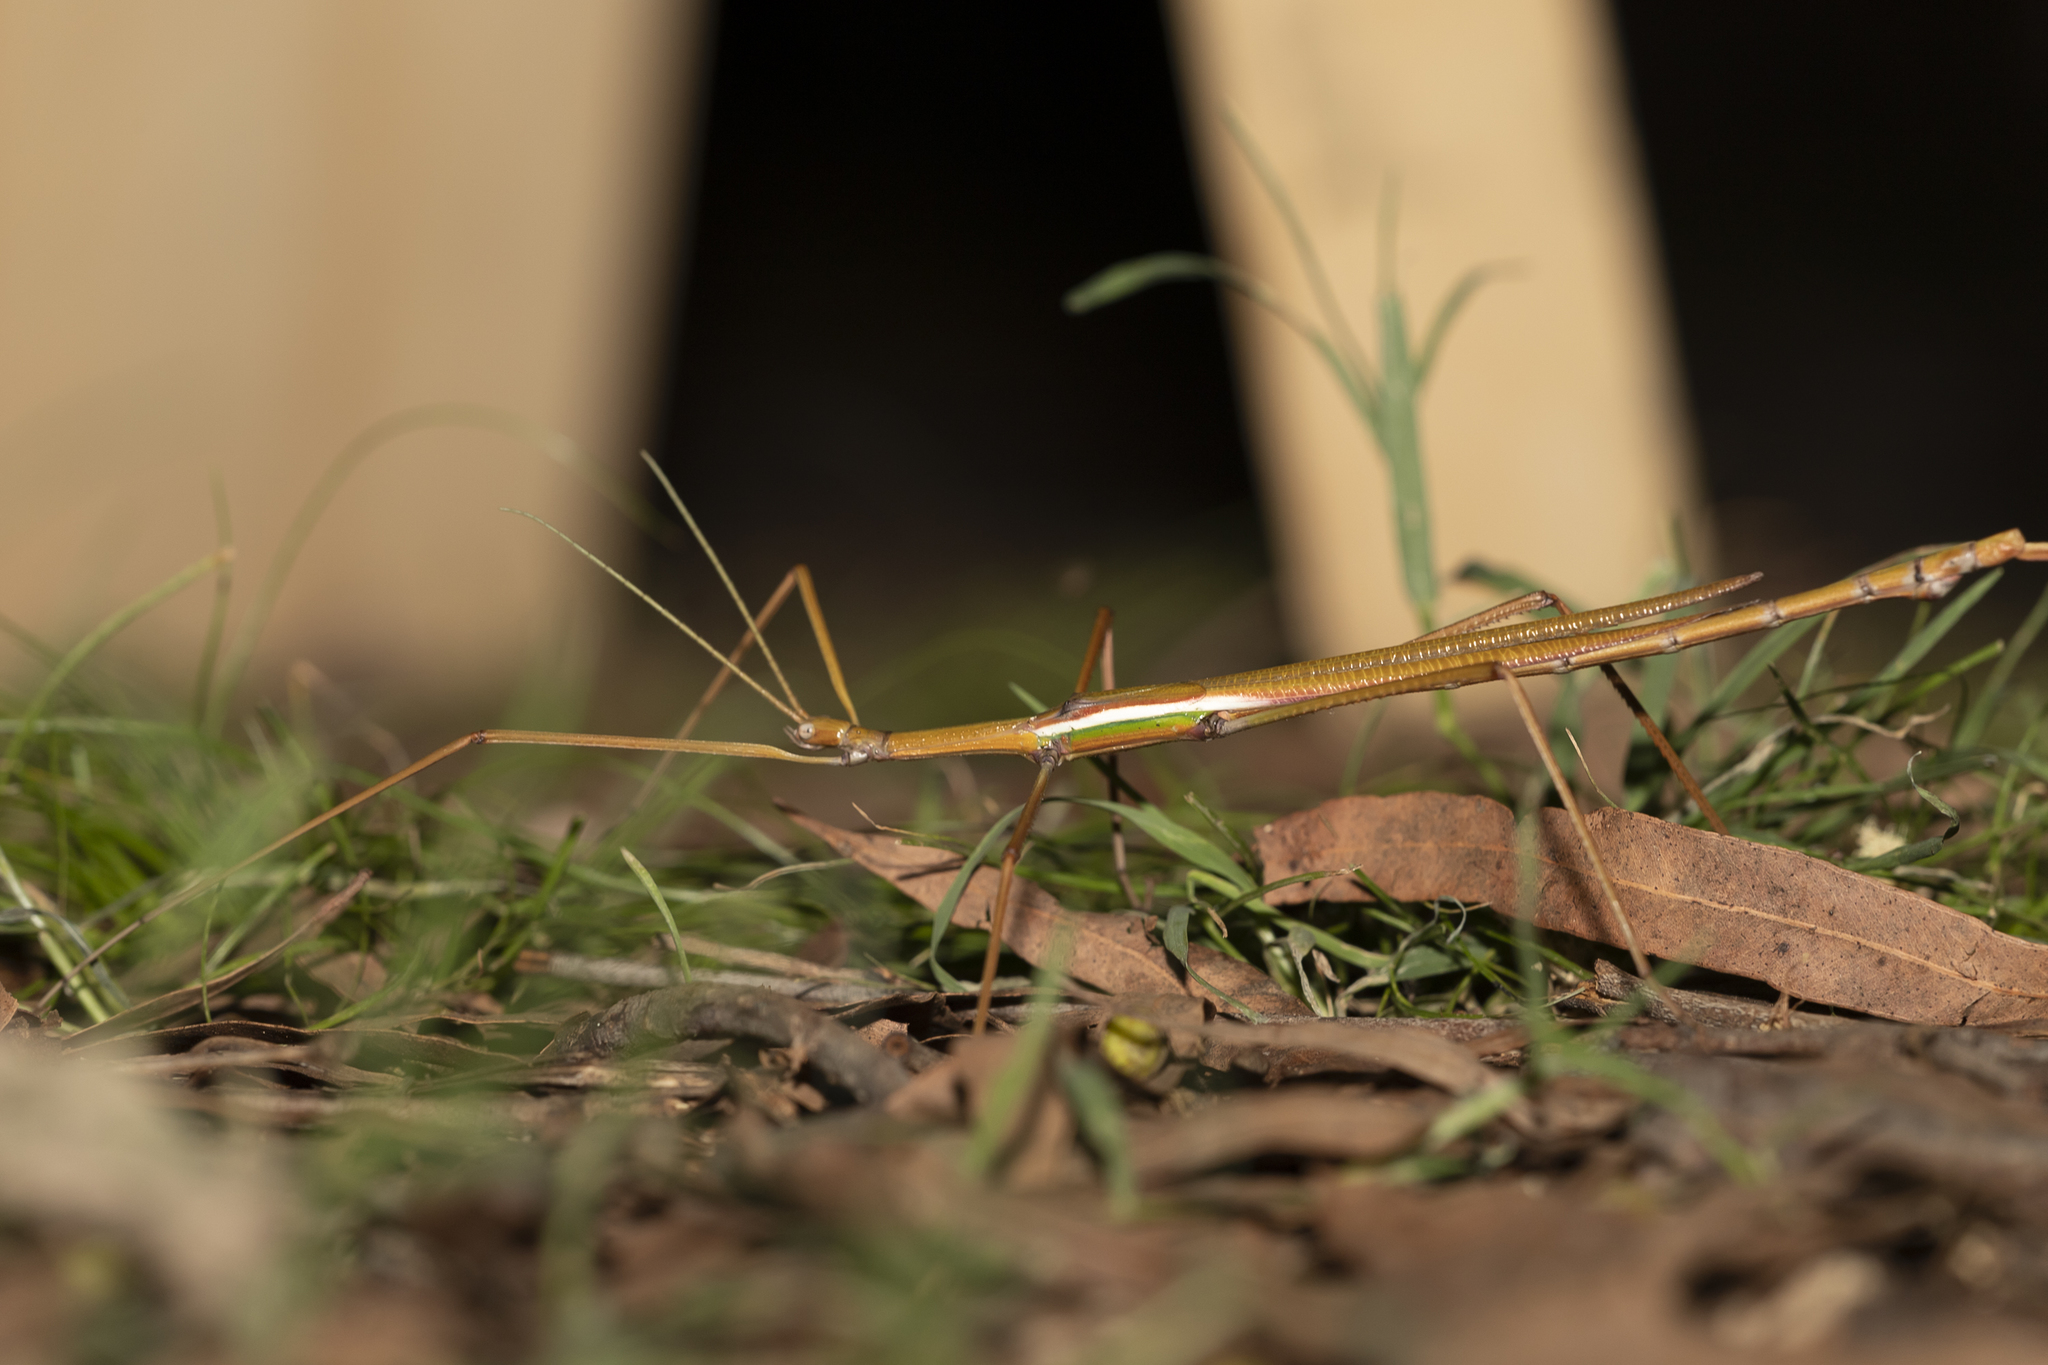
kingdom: Animalia
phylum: Arthropoda
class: Insecta
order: Phasmida
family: Phasmatidae
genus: Tropidoderus
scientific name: Tropidoderus gracilifemur
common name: Sjöstedt's graceful stick-insect
